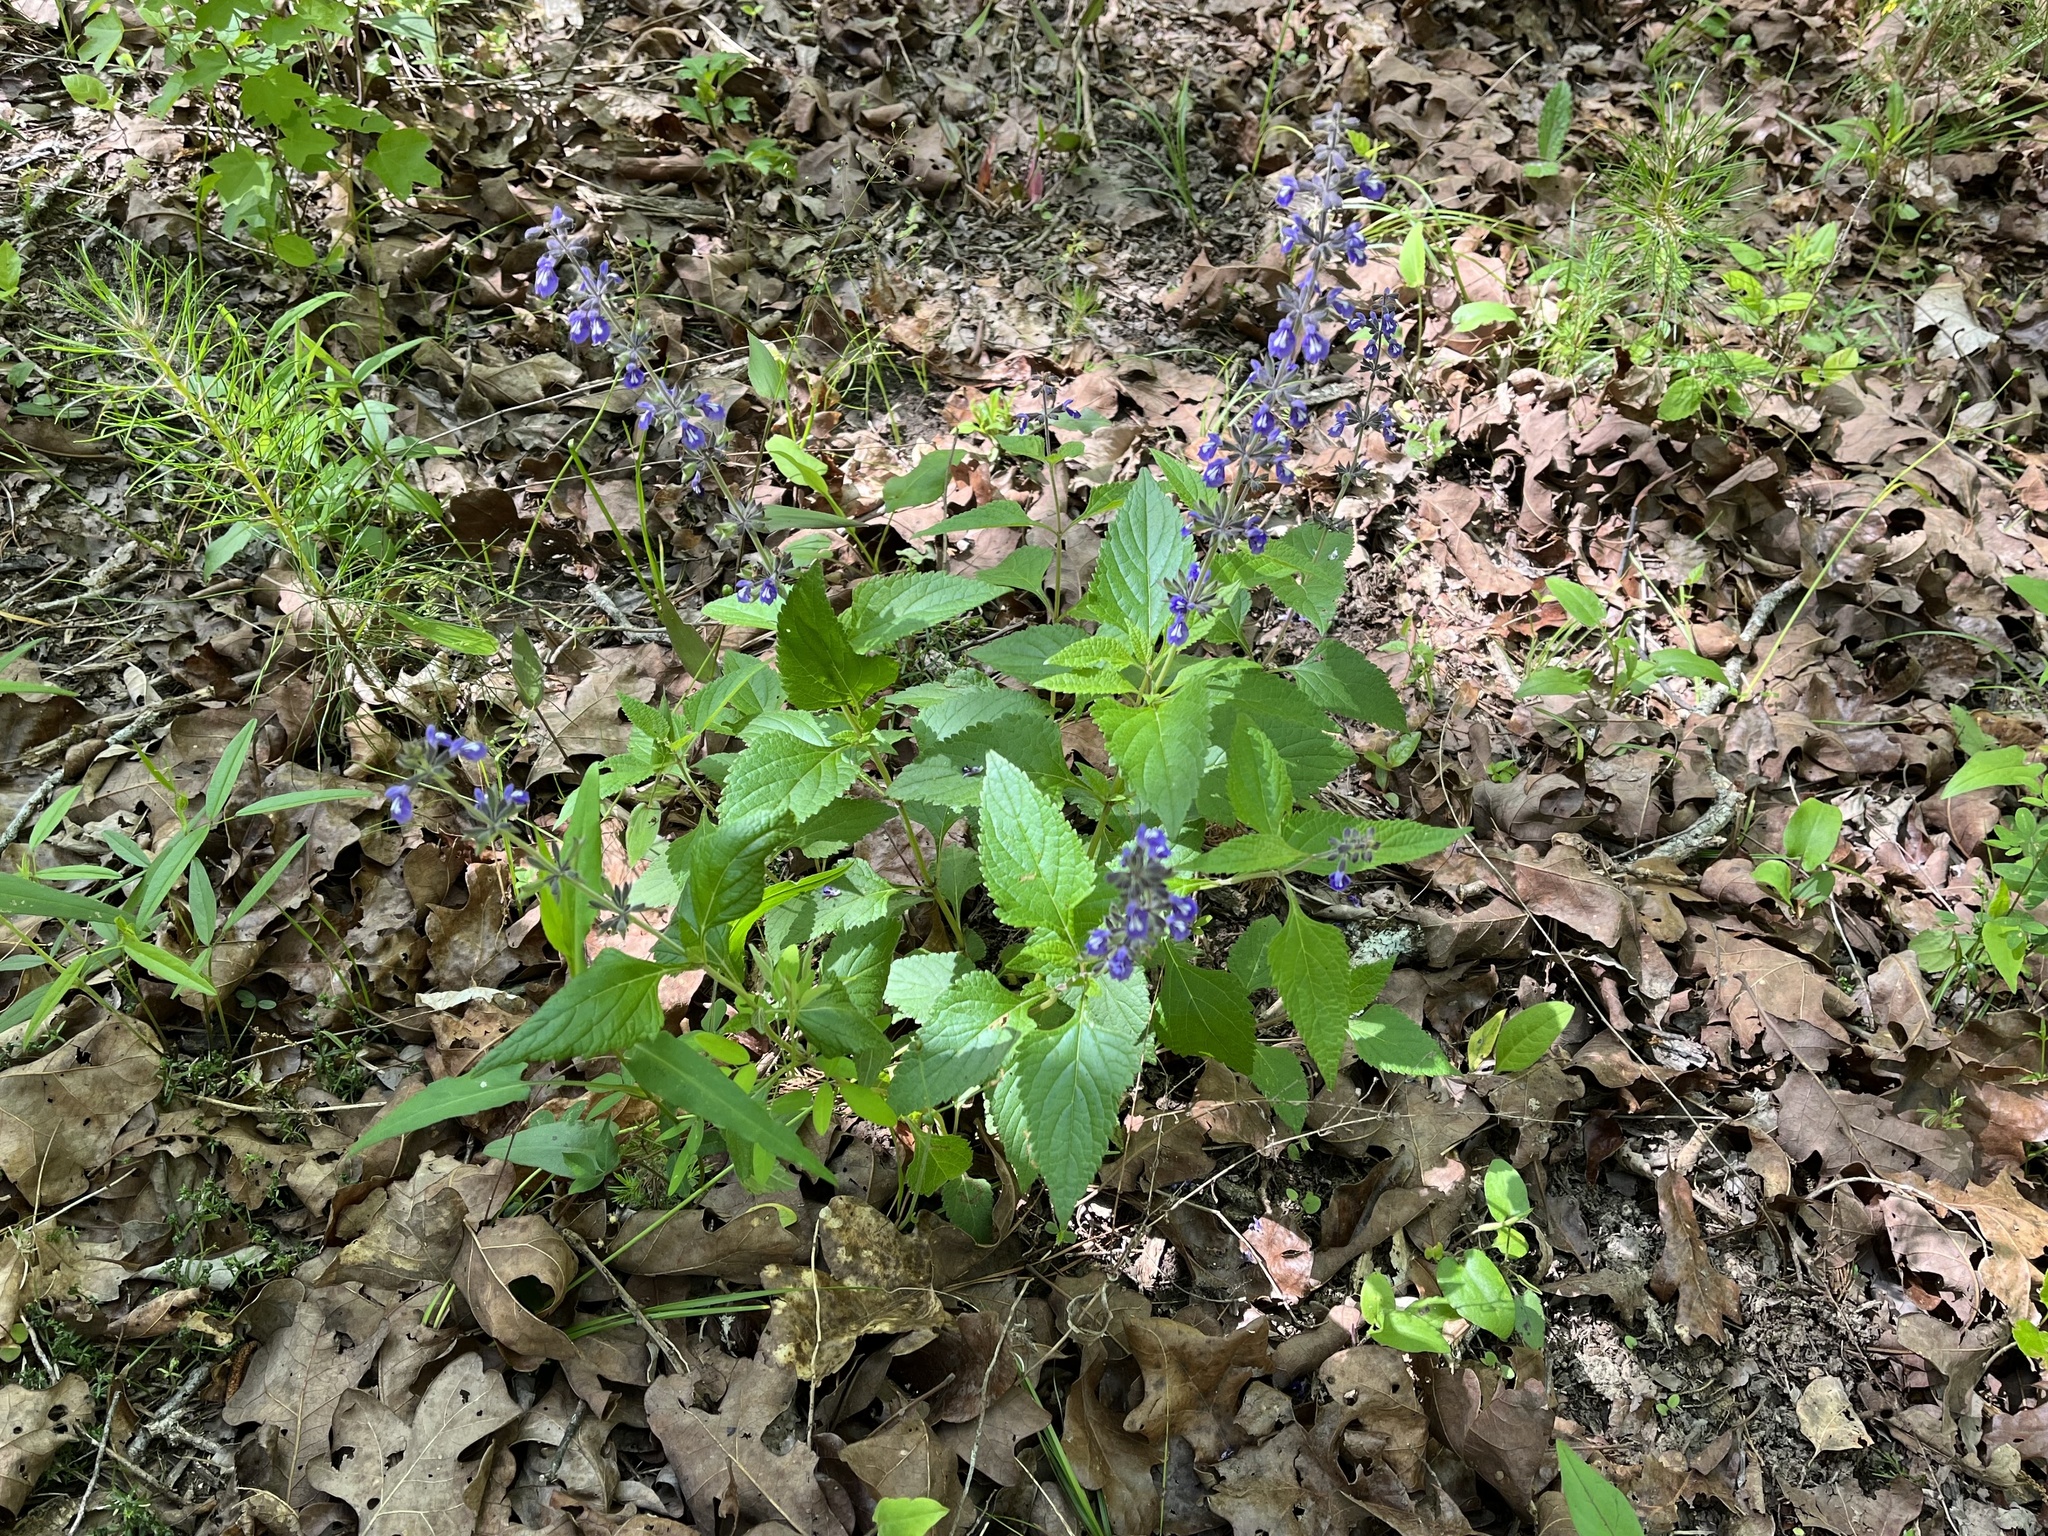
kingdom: Plantae
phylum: Tracheophyta
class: Magnoliopsida
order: Lamiales
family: Lamiaceae
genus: Salvia
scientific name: Salvia urticifolia
